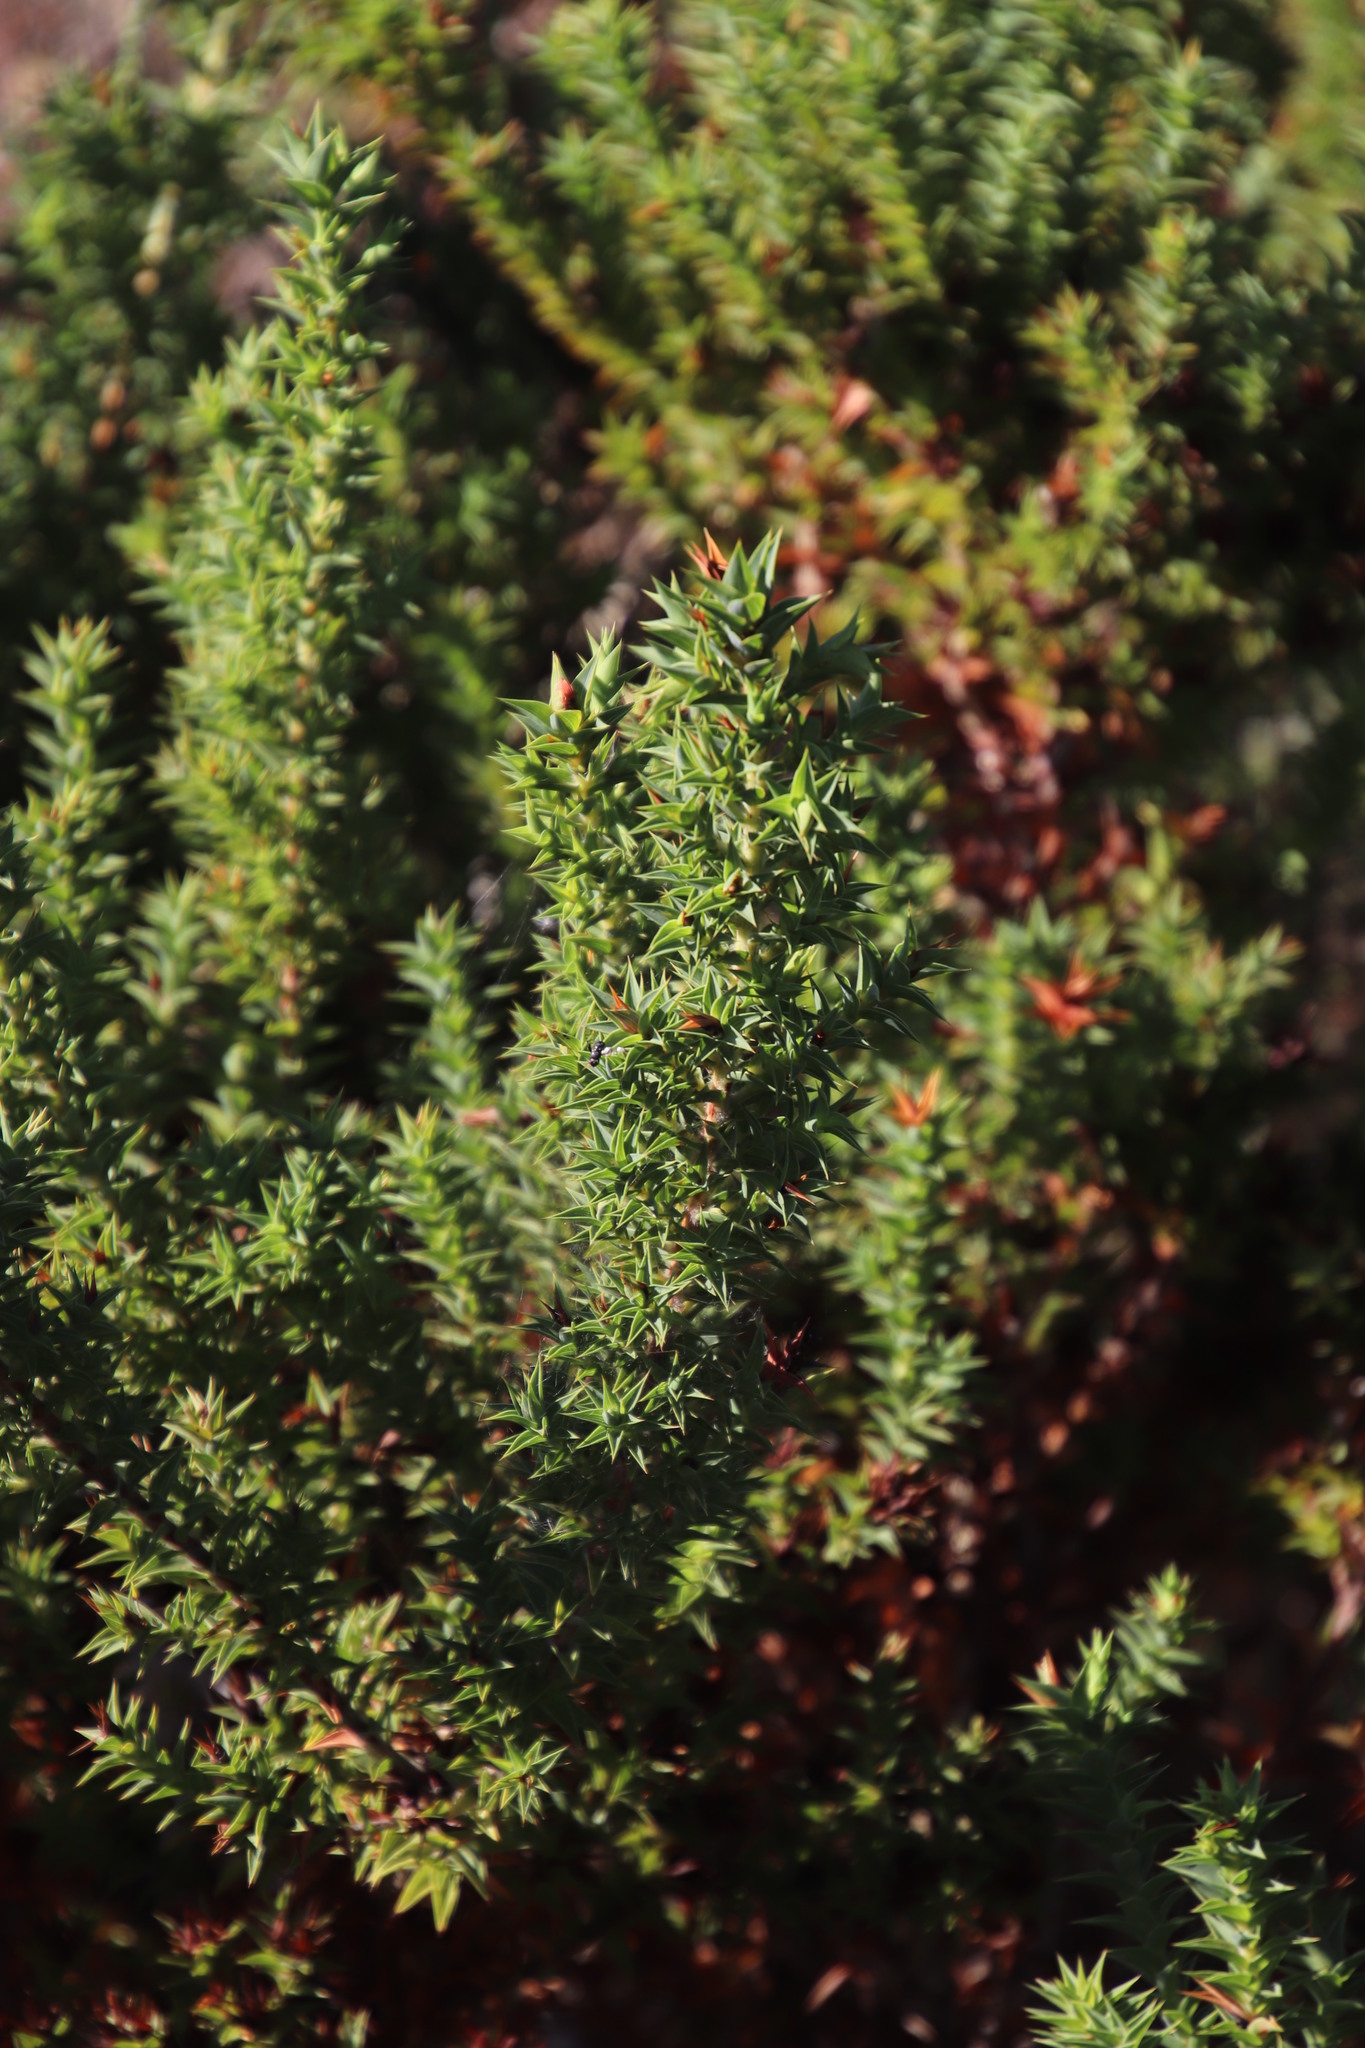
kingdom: Plantae
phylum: Tracheophyta
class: Magnoliopsida
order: Fabales
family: Fabaceae
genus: Aspalathus
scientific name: Aspalathus cordata
